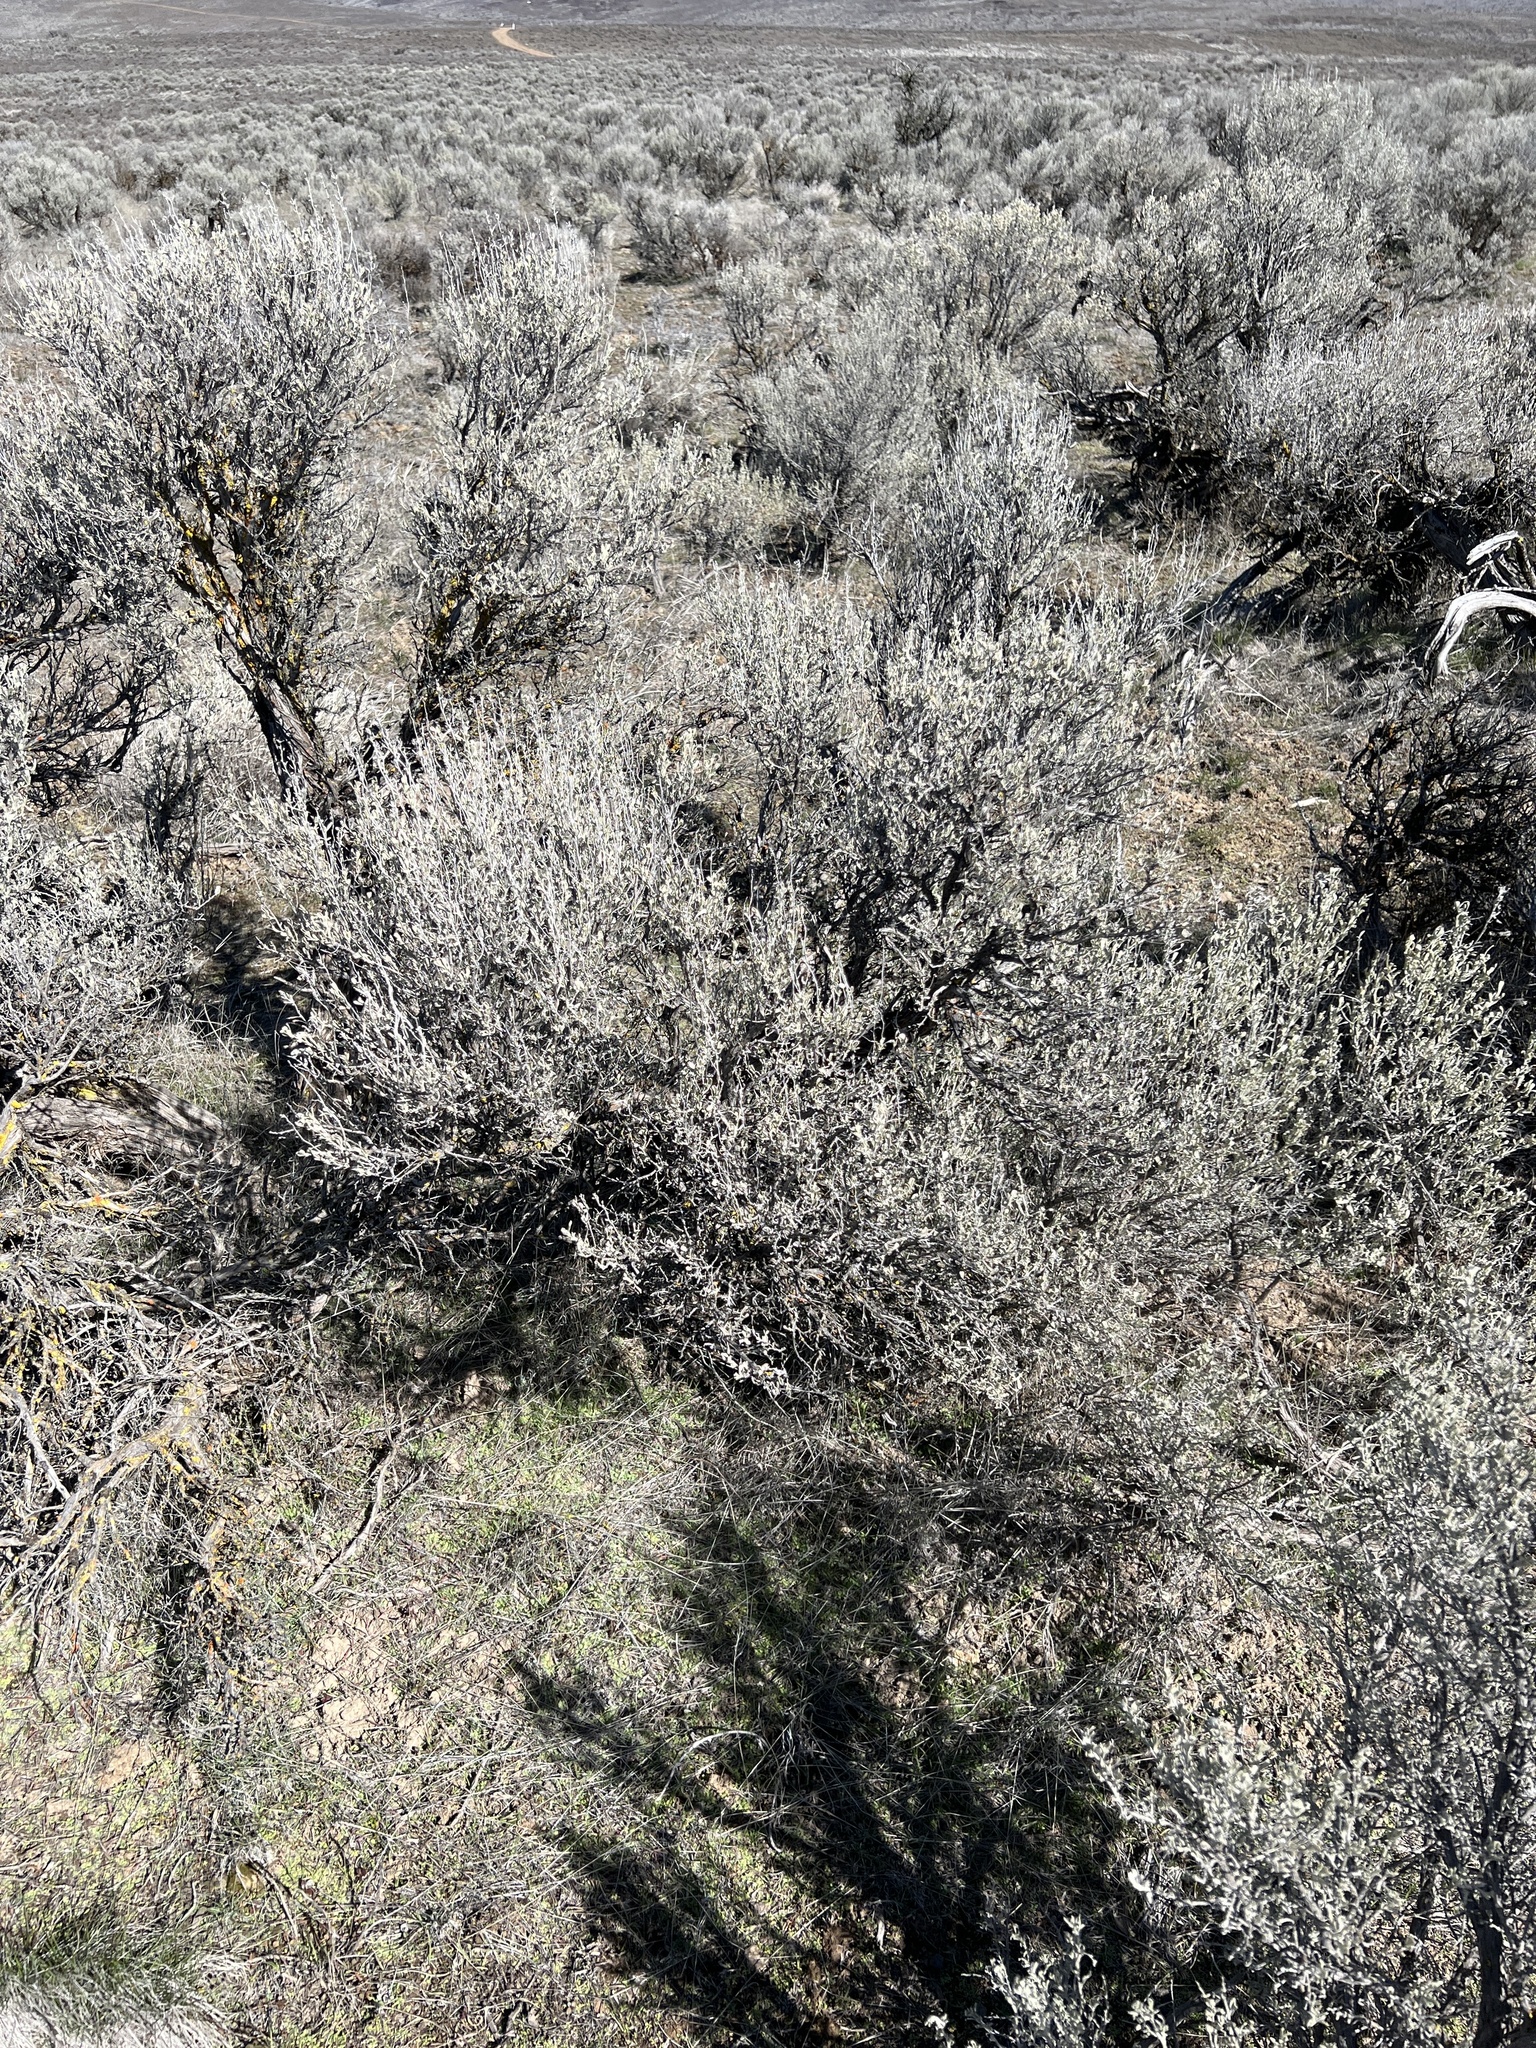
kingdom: Plantae
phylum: Tracheophyta
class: Magnoliopsida
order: Asterales
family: Asteraceae
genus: Artemisia
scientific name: Artemisia tridentata
